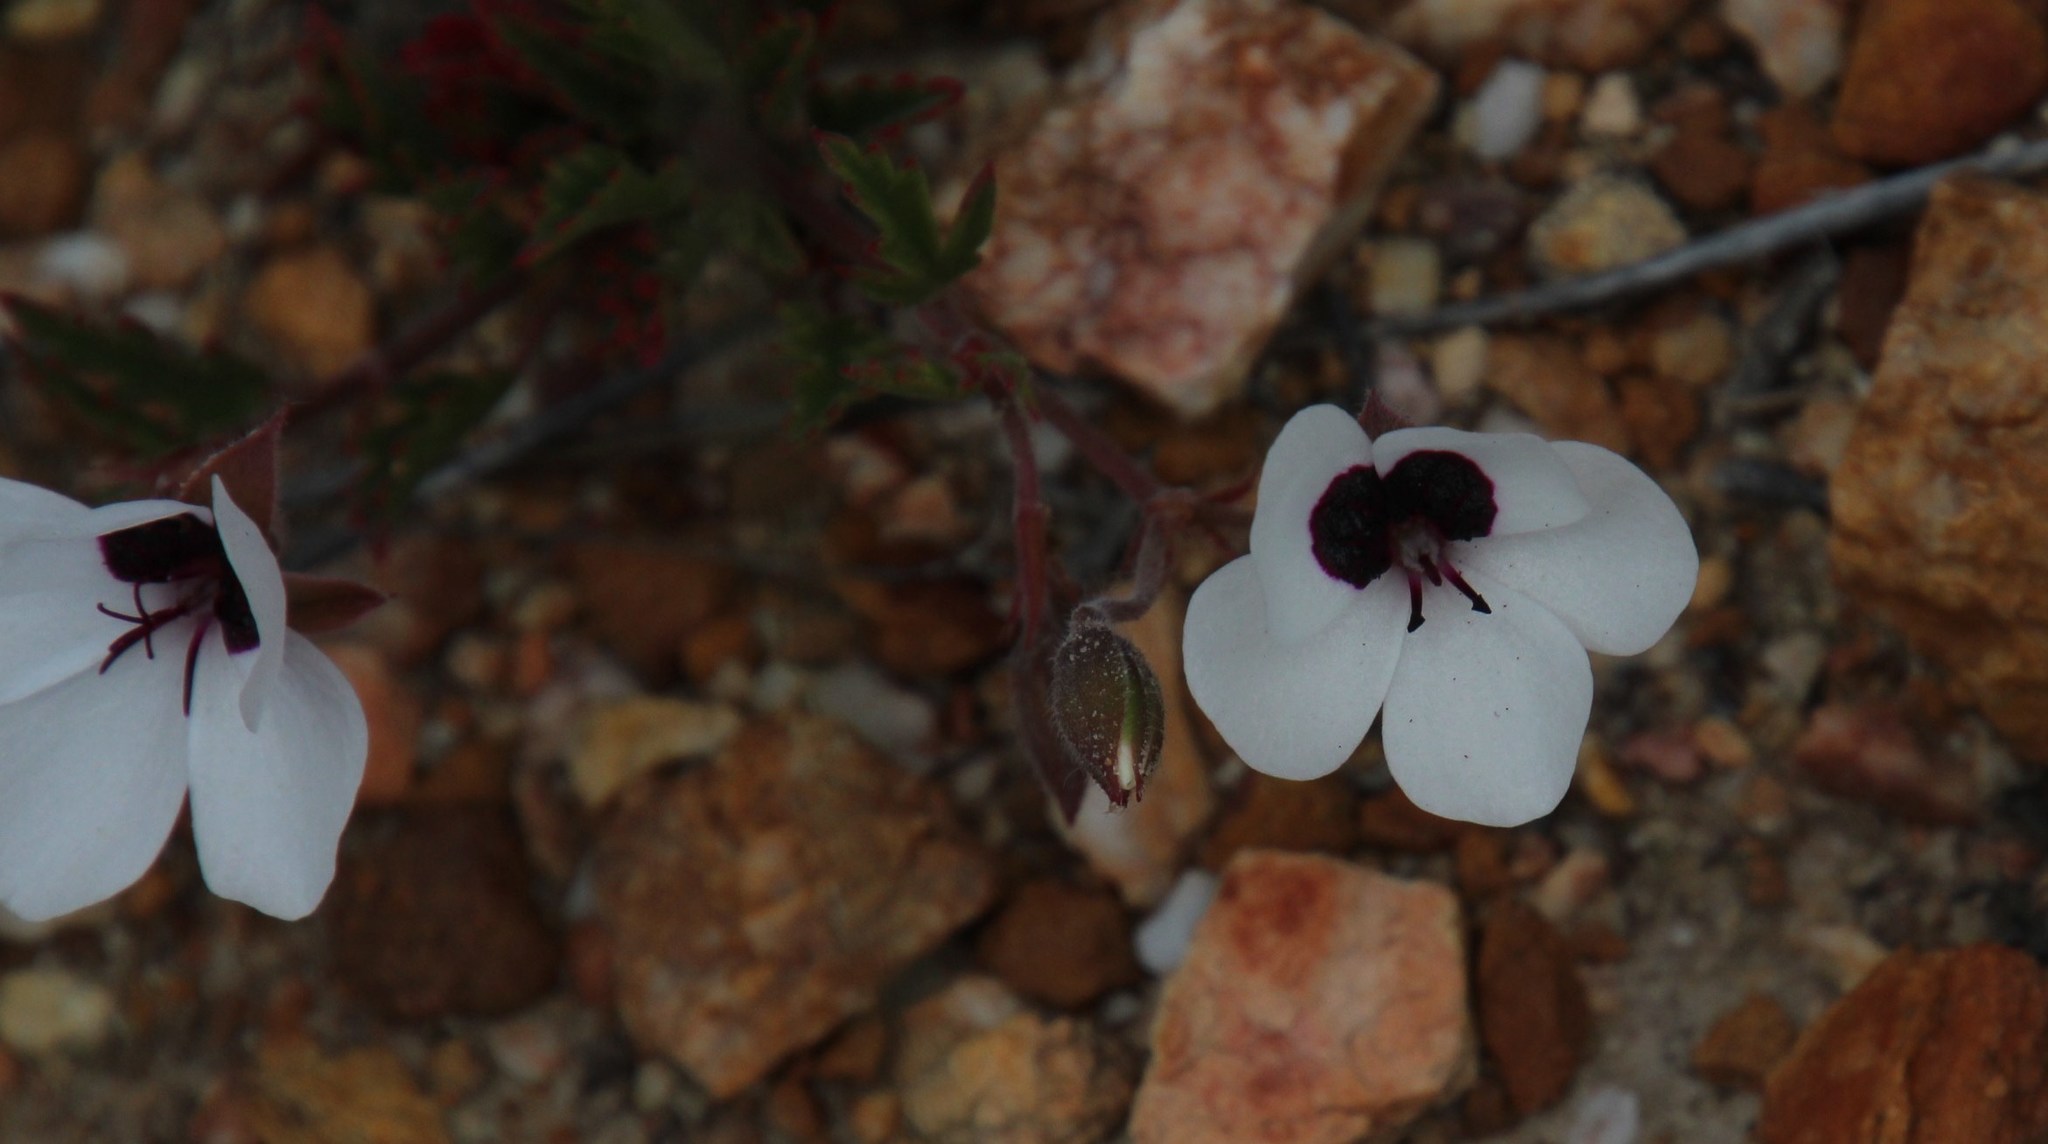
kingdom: Plantae
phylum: Tracheophyta
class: Magnoliopsida
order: Geraniales
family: Geraniaceae
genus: Pelargonium
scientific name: Pelargonium tricolor
